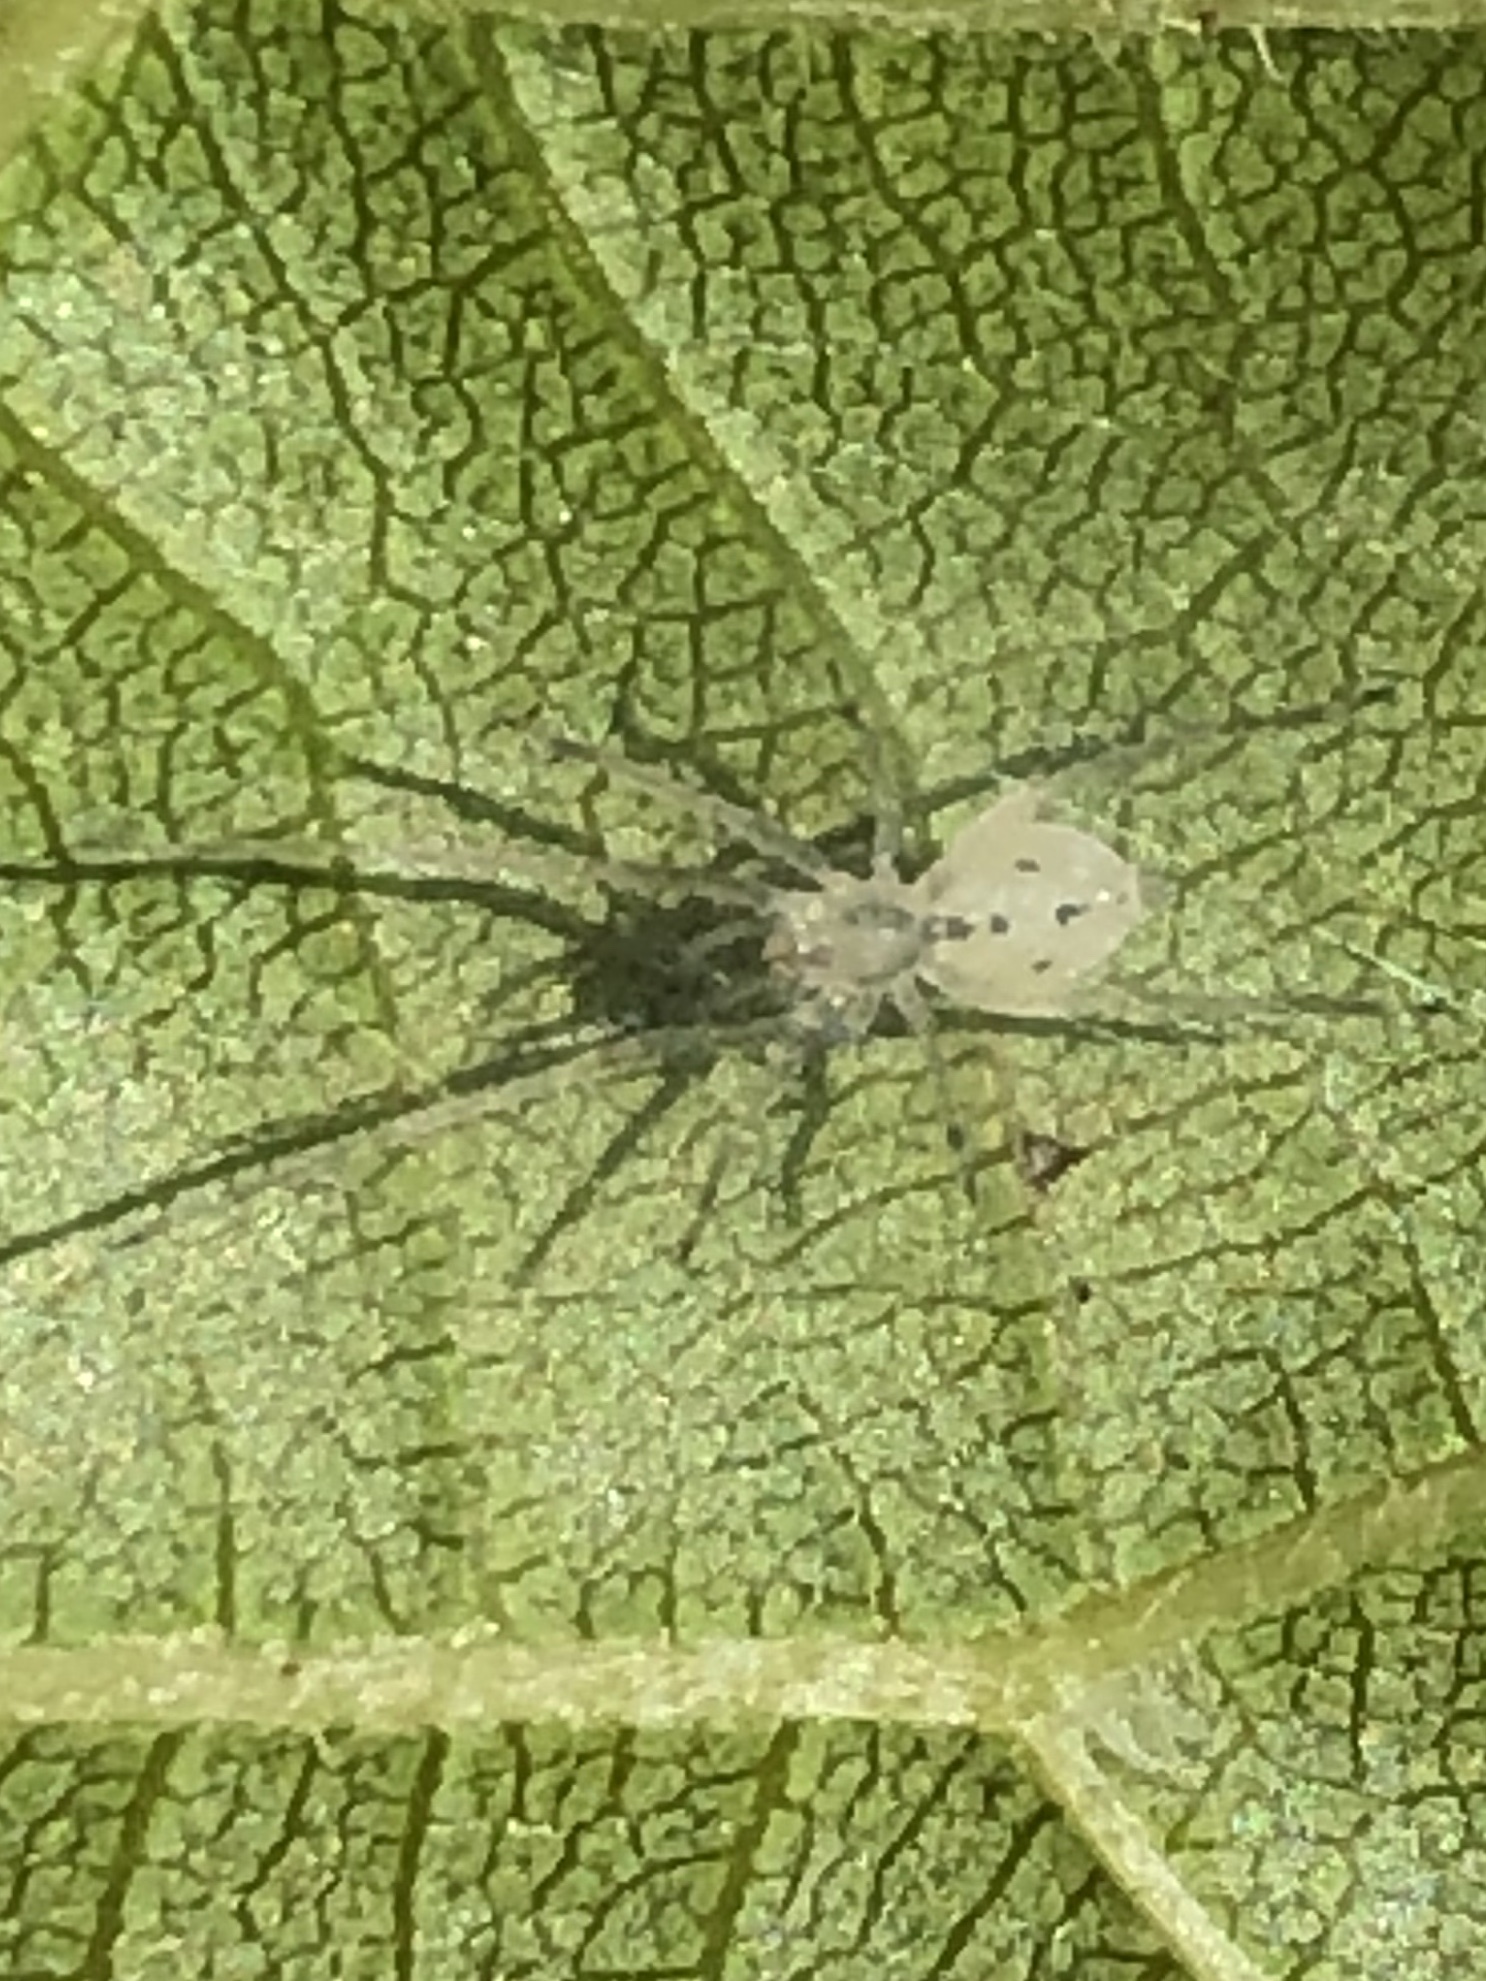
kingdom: Animalia
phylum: Arthropoda
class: Arachnida
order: Araneae
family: Anyphaenidae
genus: Wulfila
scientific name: Wulfila saltabundus
